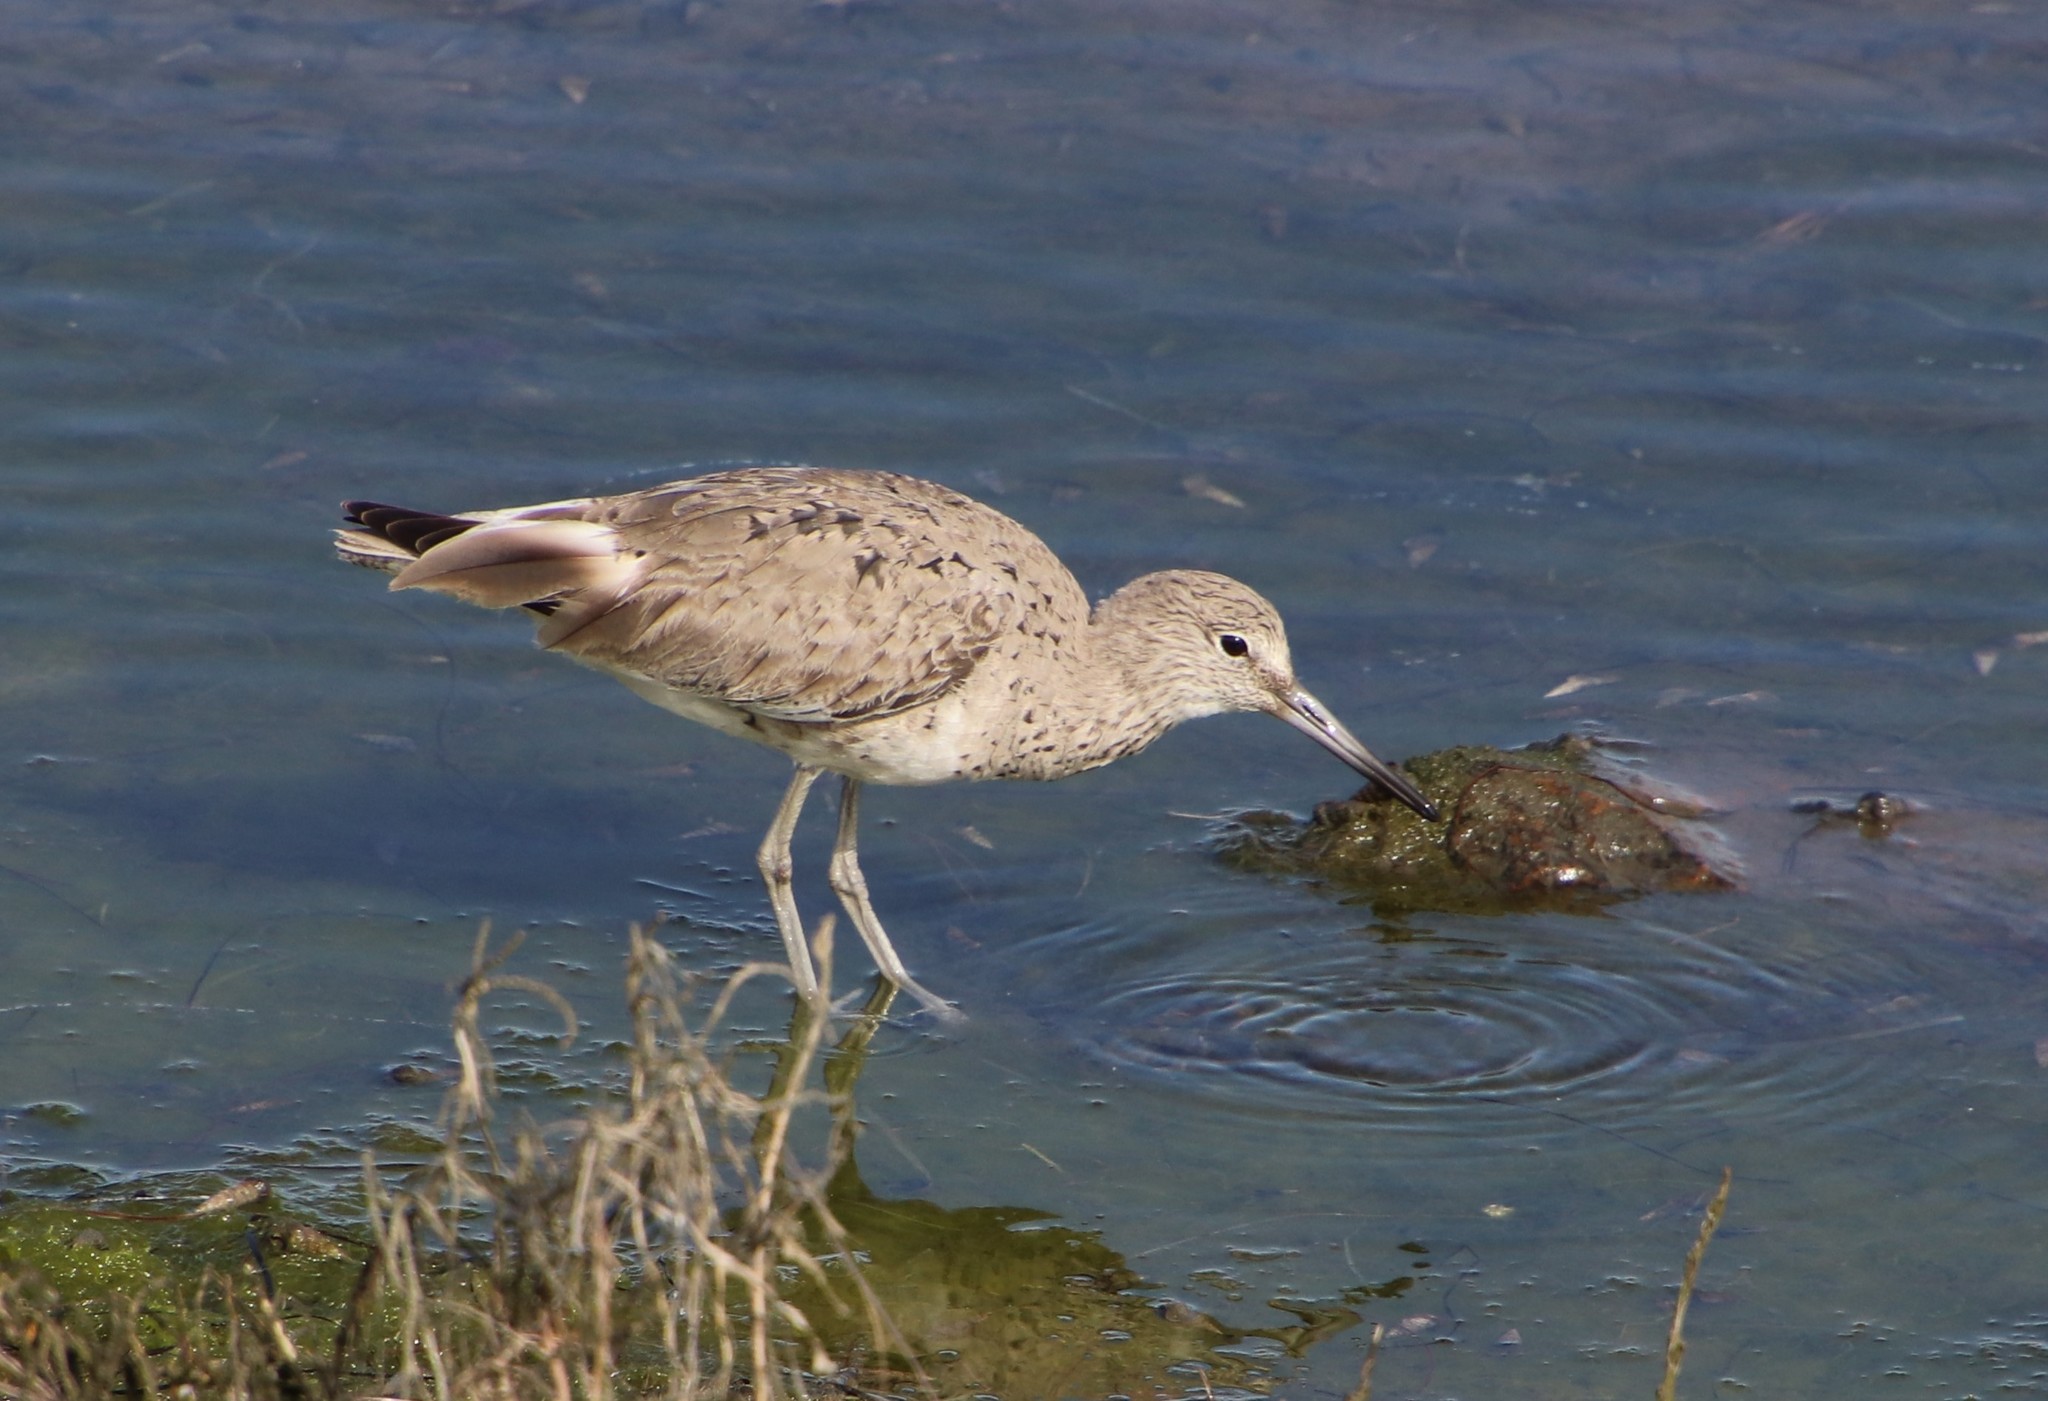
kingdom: Animalia
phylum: Chordata
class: Aves
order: Charadriiformes
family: Scolopacidae
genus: Tringa
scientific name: Tringa semipalmata
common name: Willet
